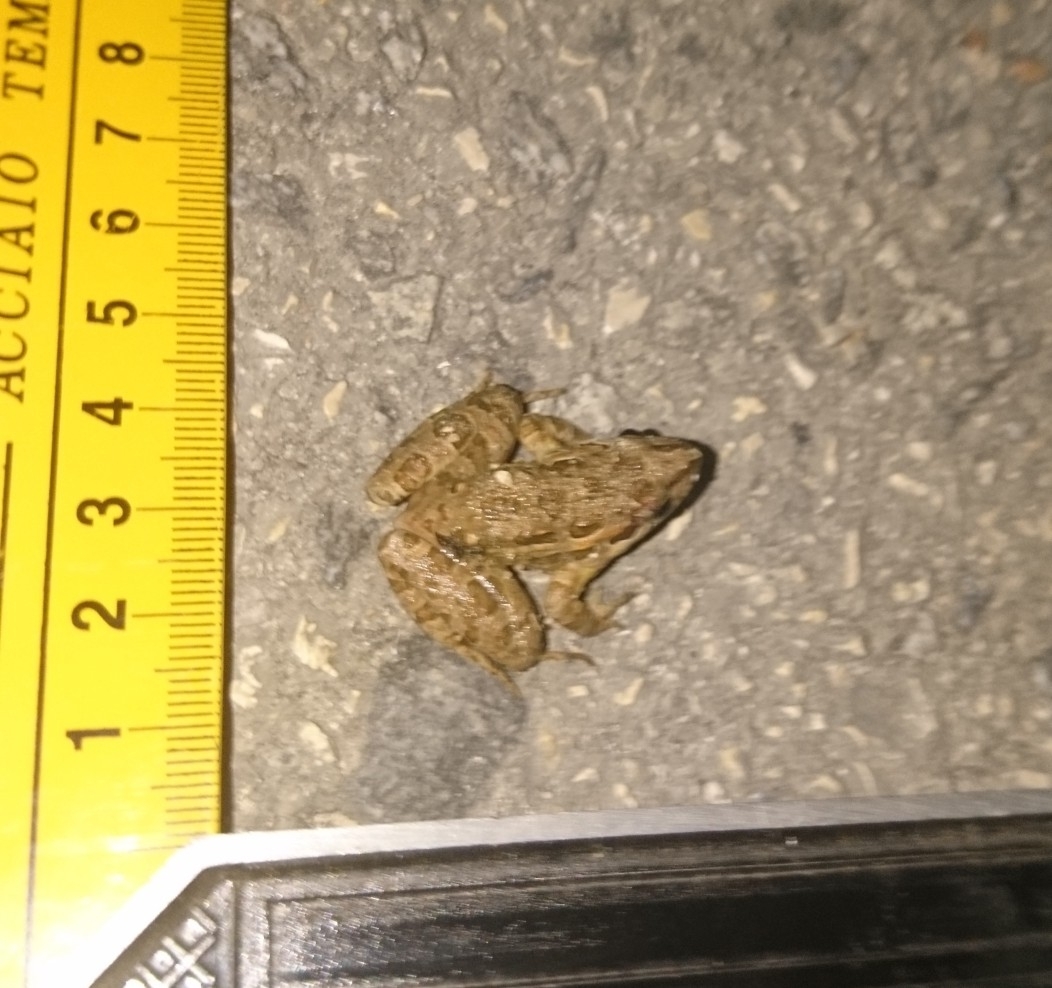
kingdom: Animalia
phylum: Chordata
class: Amphibia
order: Anura
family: Alytidae
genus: Discoglossus
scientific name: Discoglossus galganoi
